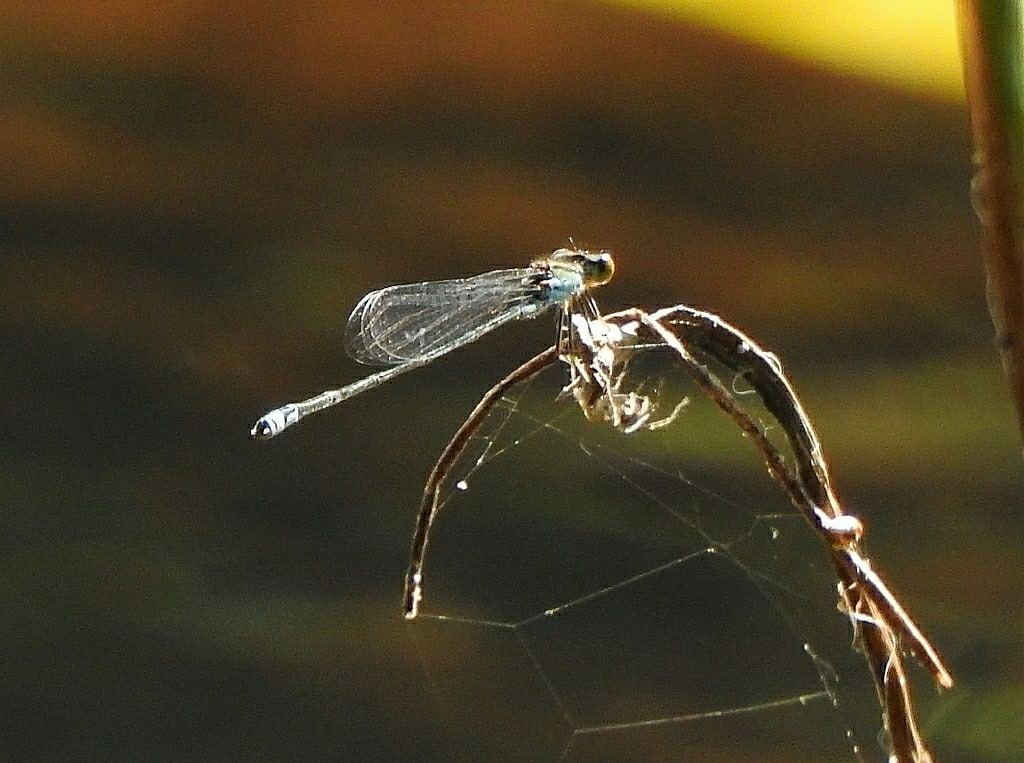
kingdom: Animalia
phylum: Arthropoda
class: Insecta
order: Odonata
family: Coenagrionidae
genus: Pseudagrion
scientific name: Pseudagrion rubriceps
